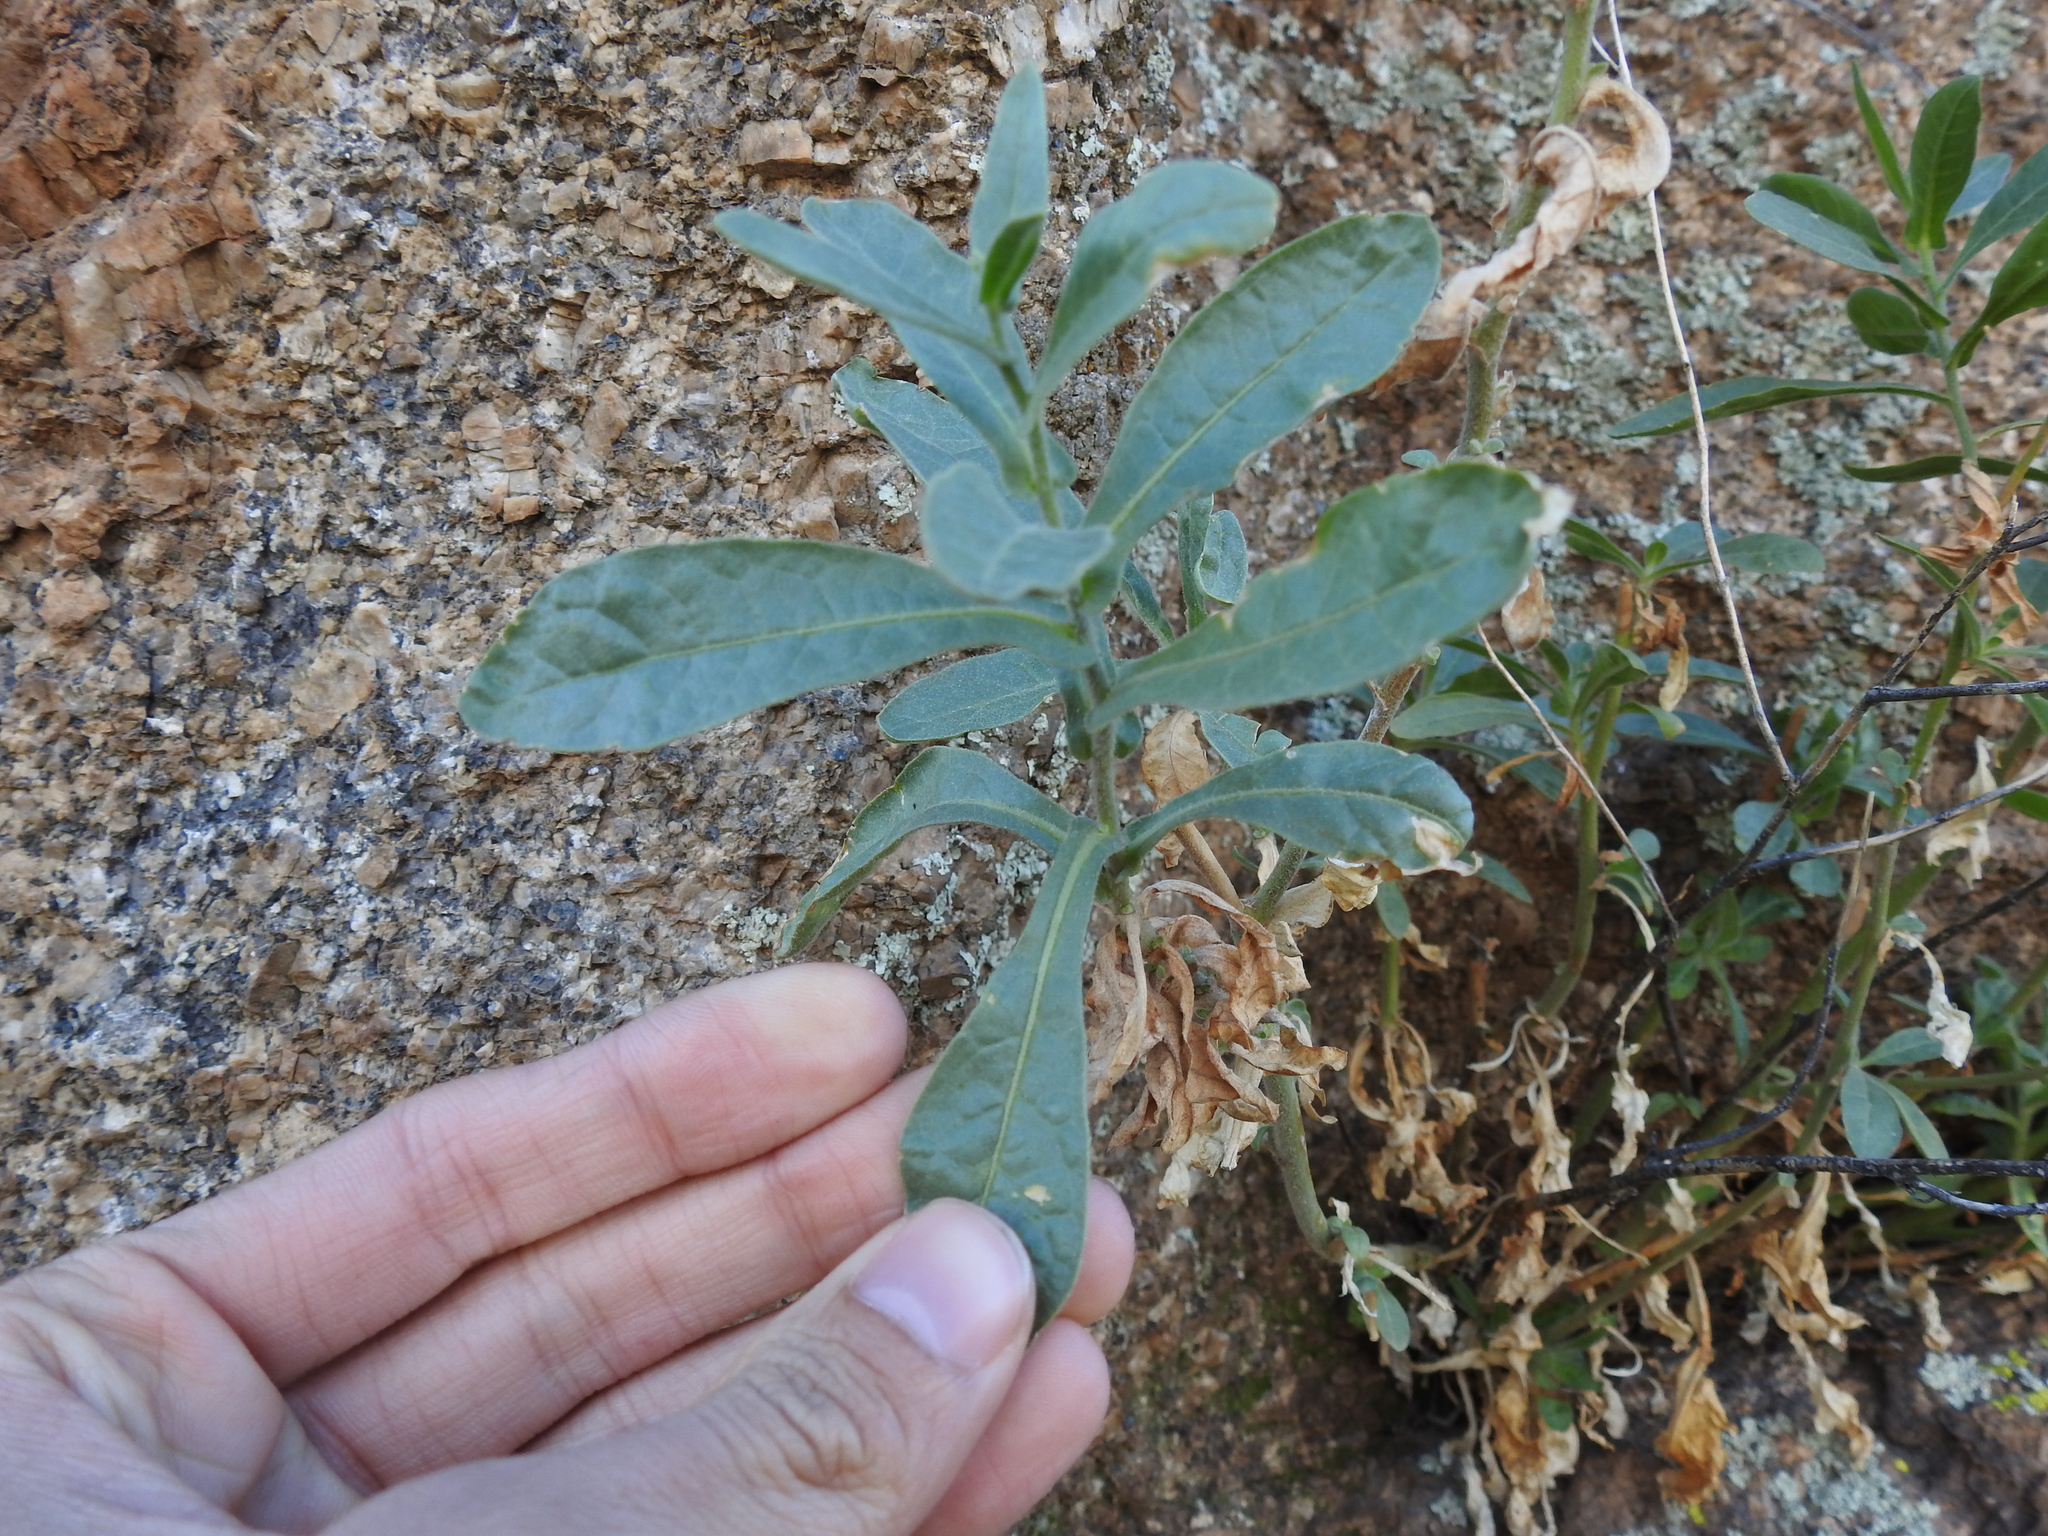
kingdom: Plantae
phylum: Tracheophyta
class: Magnoliopsida
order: Solanales
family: Solanaceae
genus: Nicotiana
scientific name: Nicotiana obtusifolia
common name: Desert tobacco
